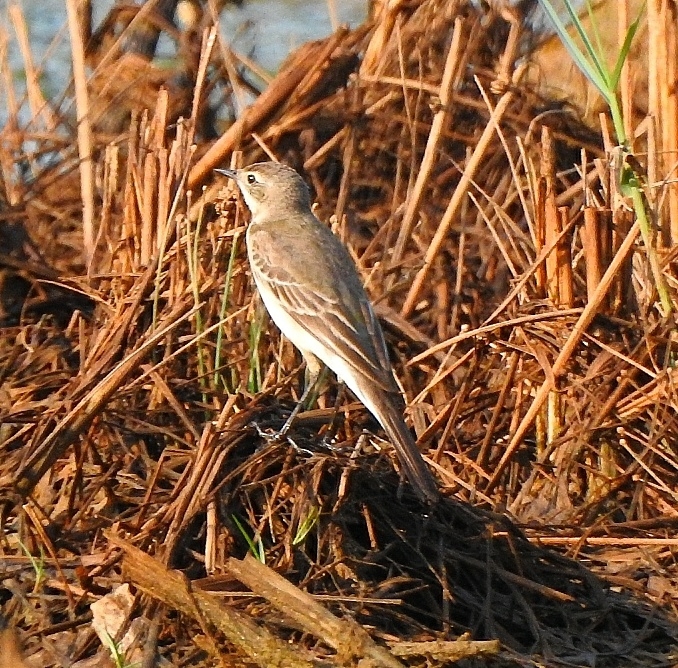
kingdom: Animalia
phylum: Chordata
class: Aves
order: Passeriformes
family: Motacillidae
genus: Motacilla
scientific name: Motacilla flava
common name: Western yellow wagtail
